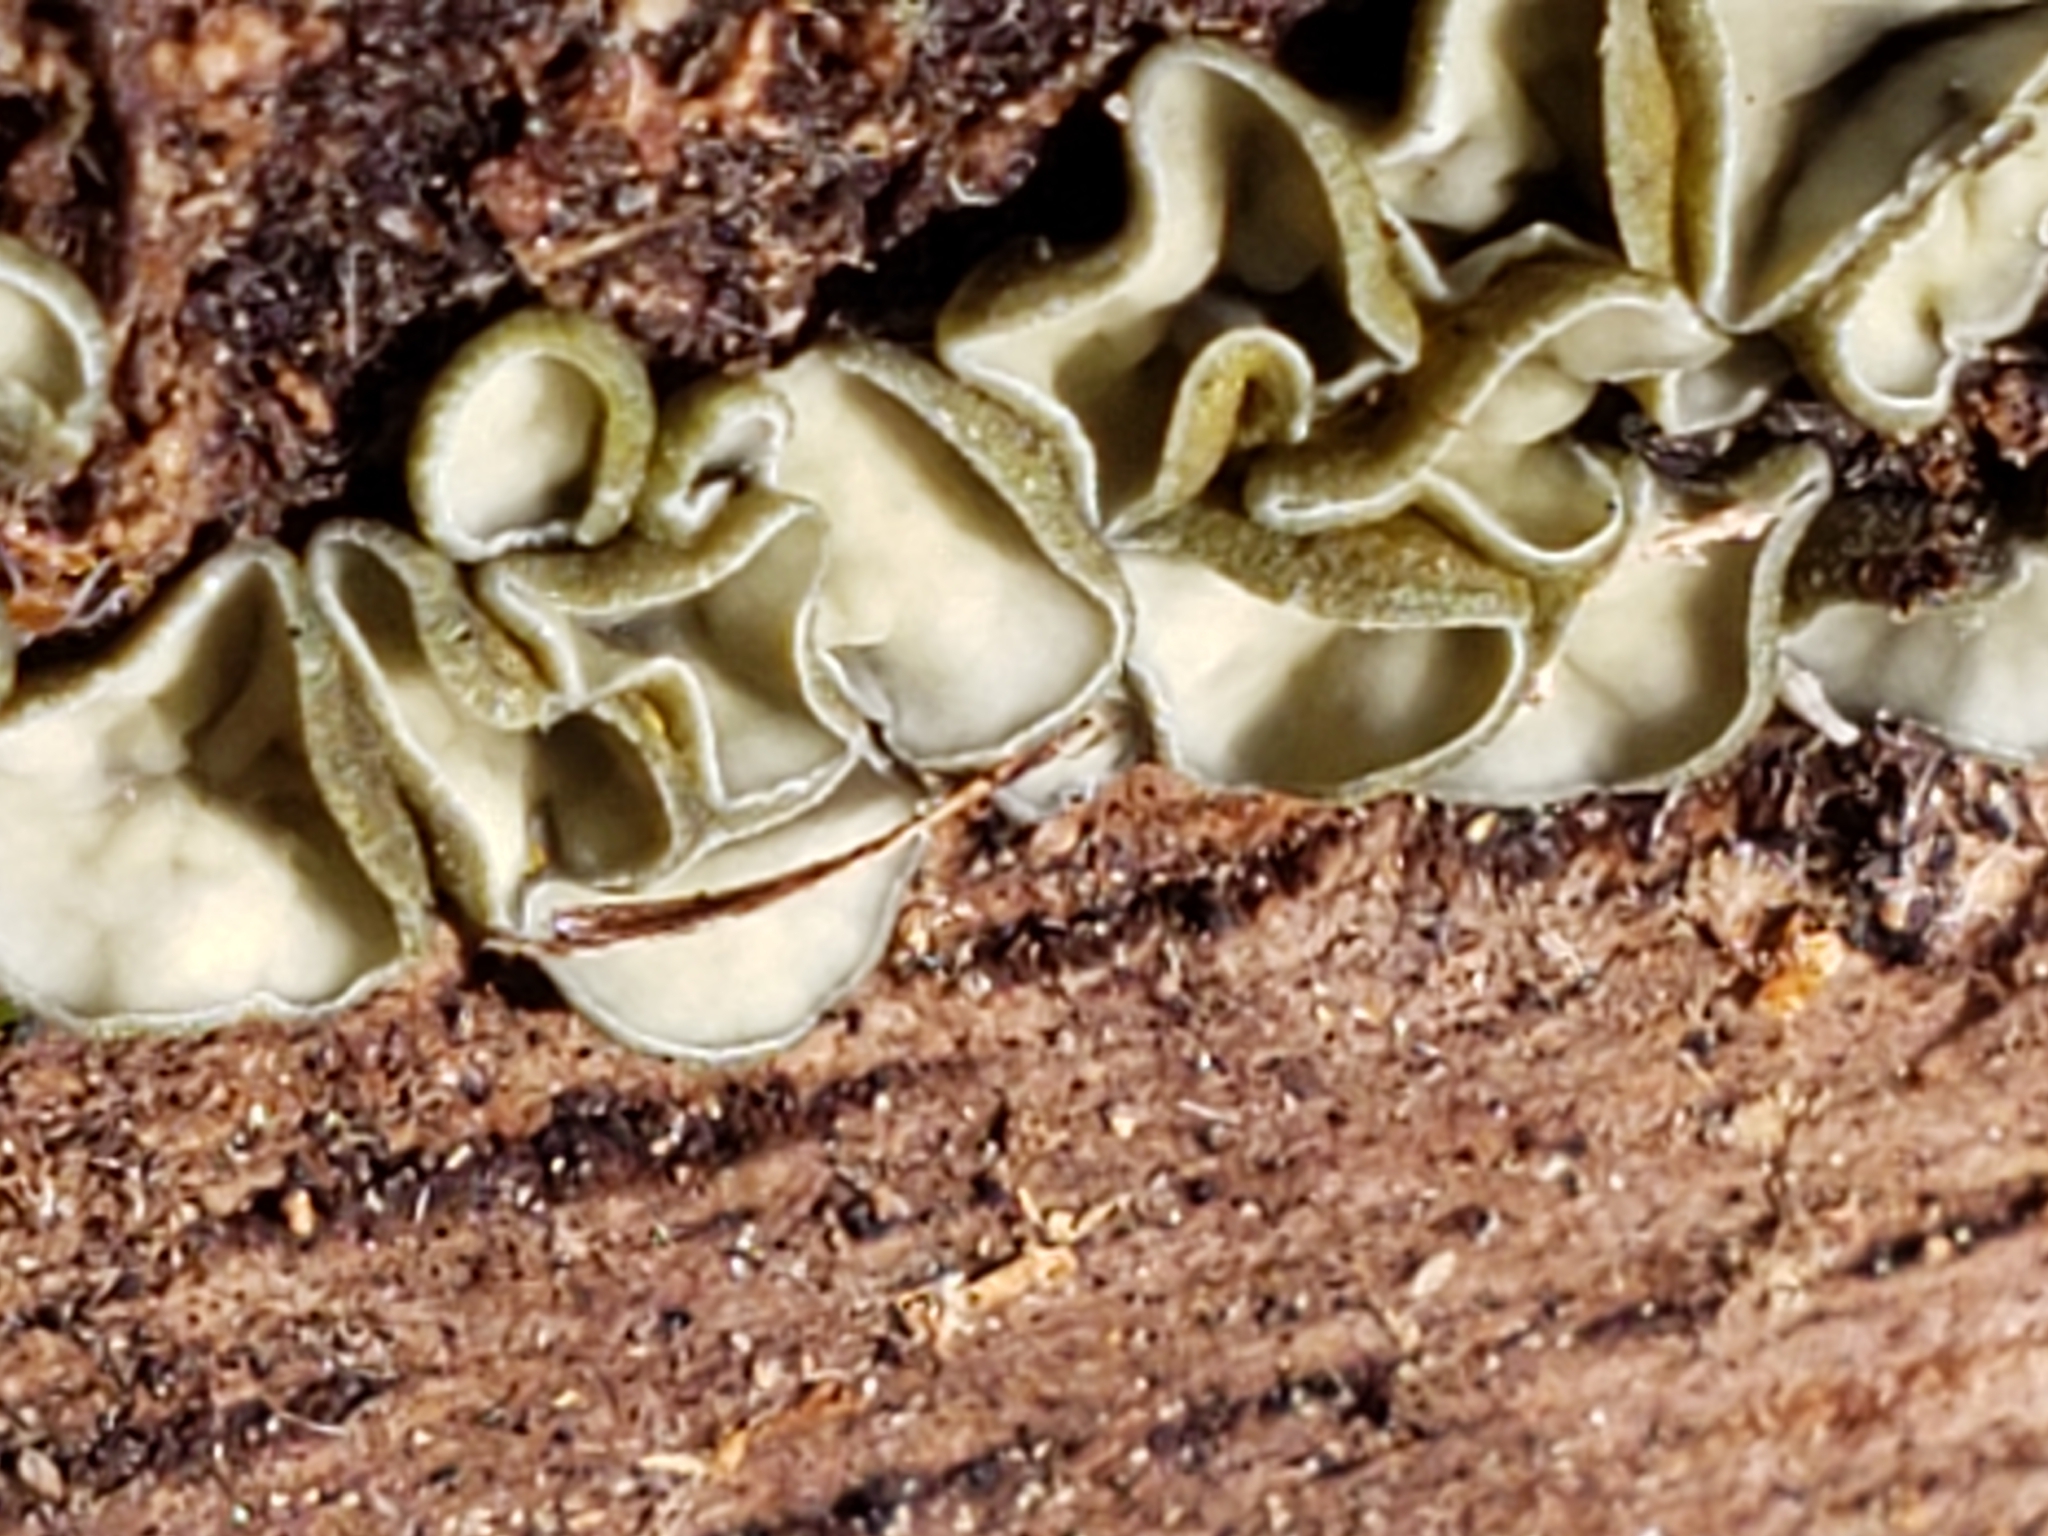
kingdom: Fungi
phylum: Ascomycota
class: Leotiomycetes
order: Helotiales
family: Chlorospleniaceae
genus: Chlorosplenium
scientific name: Chlorosplenium chlora
